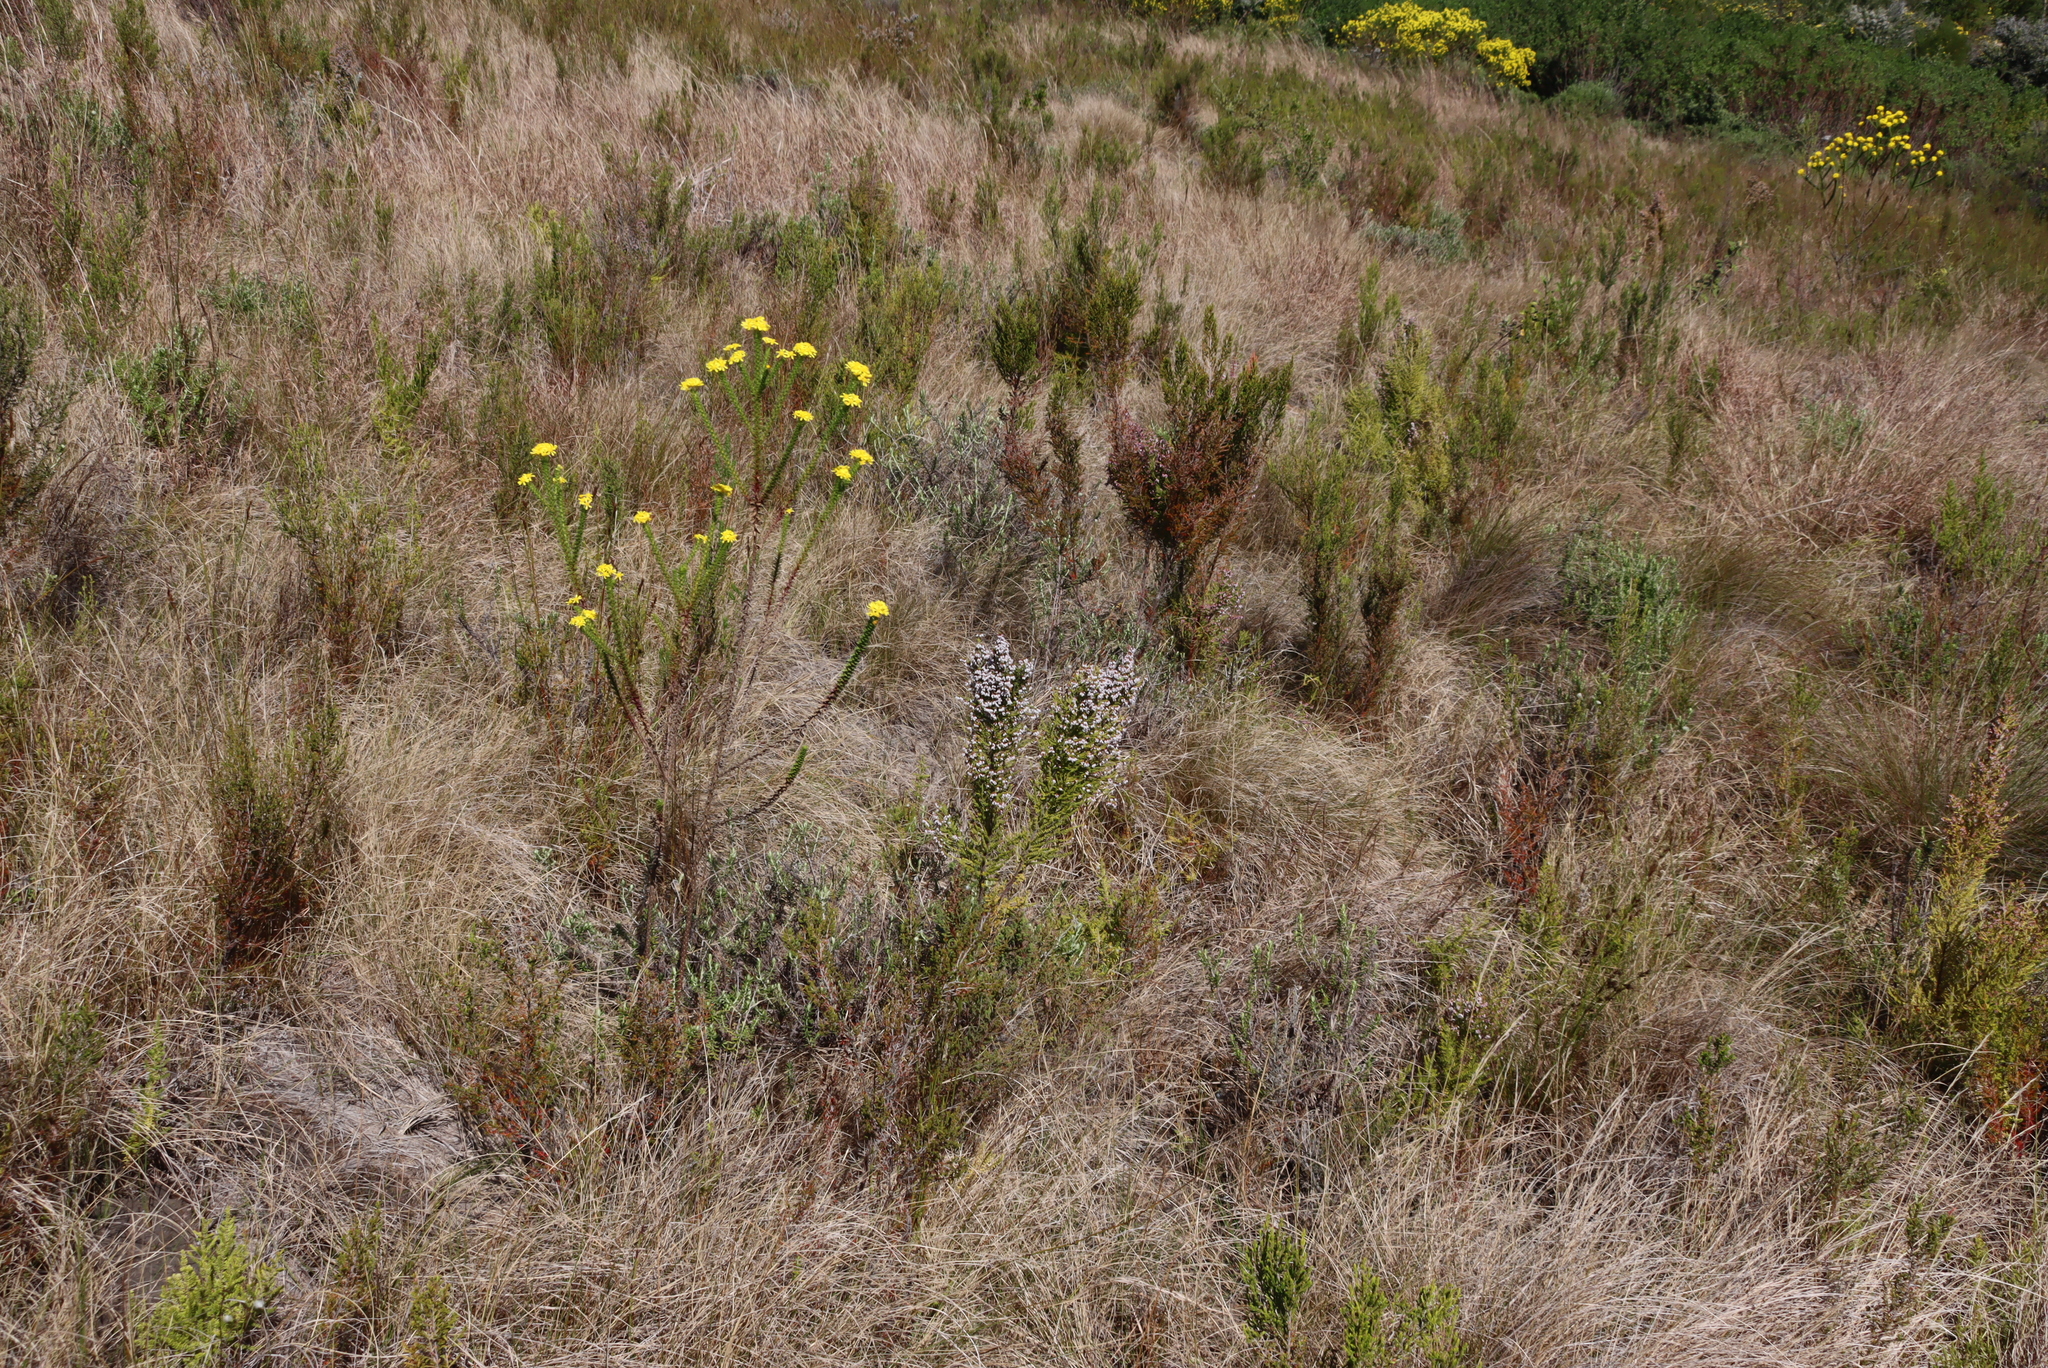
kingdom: Plantae
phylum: Tracheophyta
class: Magnoliopsida
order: Asterales
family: Asteraceae
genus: Euryops
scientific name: Euryops virgineus
